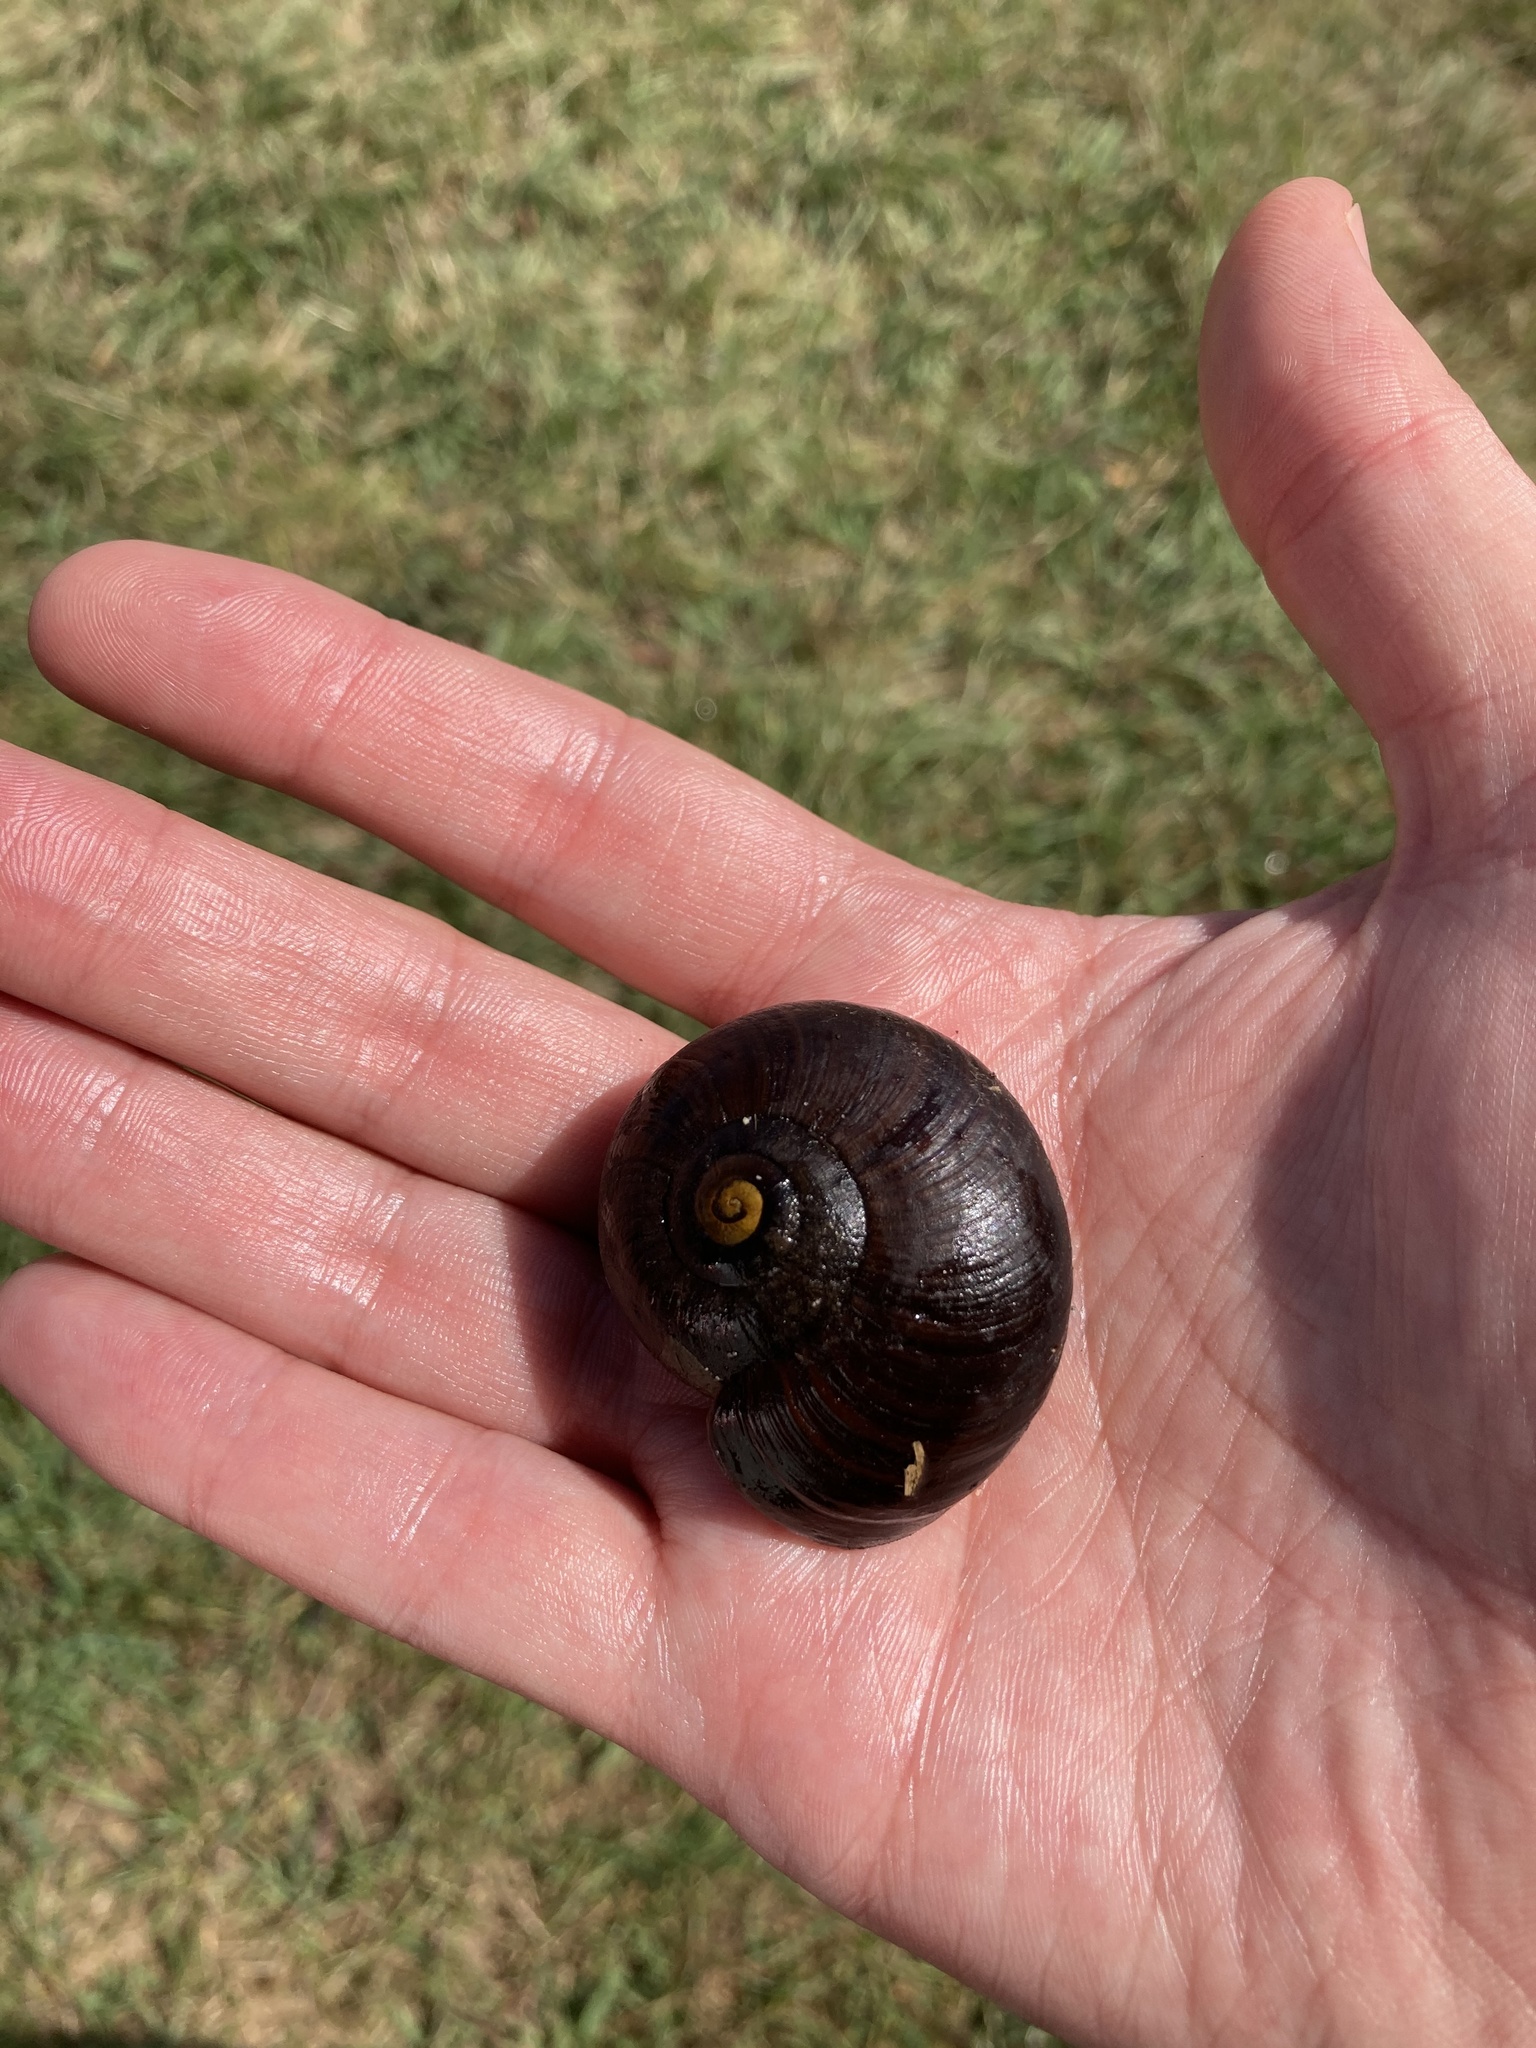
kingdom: Animalia
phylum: Mollusca
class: Gastropoda
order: Stylommatophora
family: Rhytididae
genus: Powelliphanta
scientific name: Powelliphanta annectens
